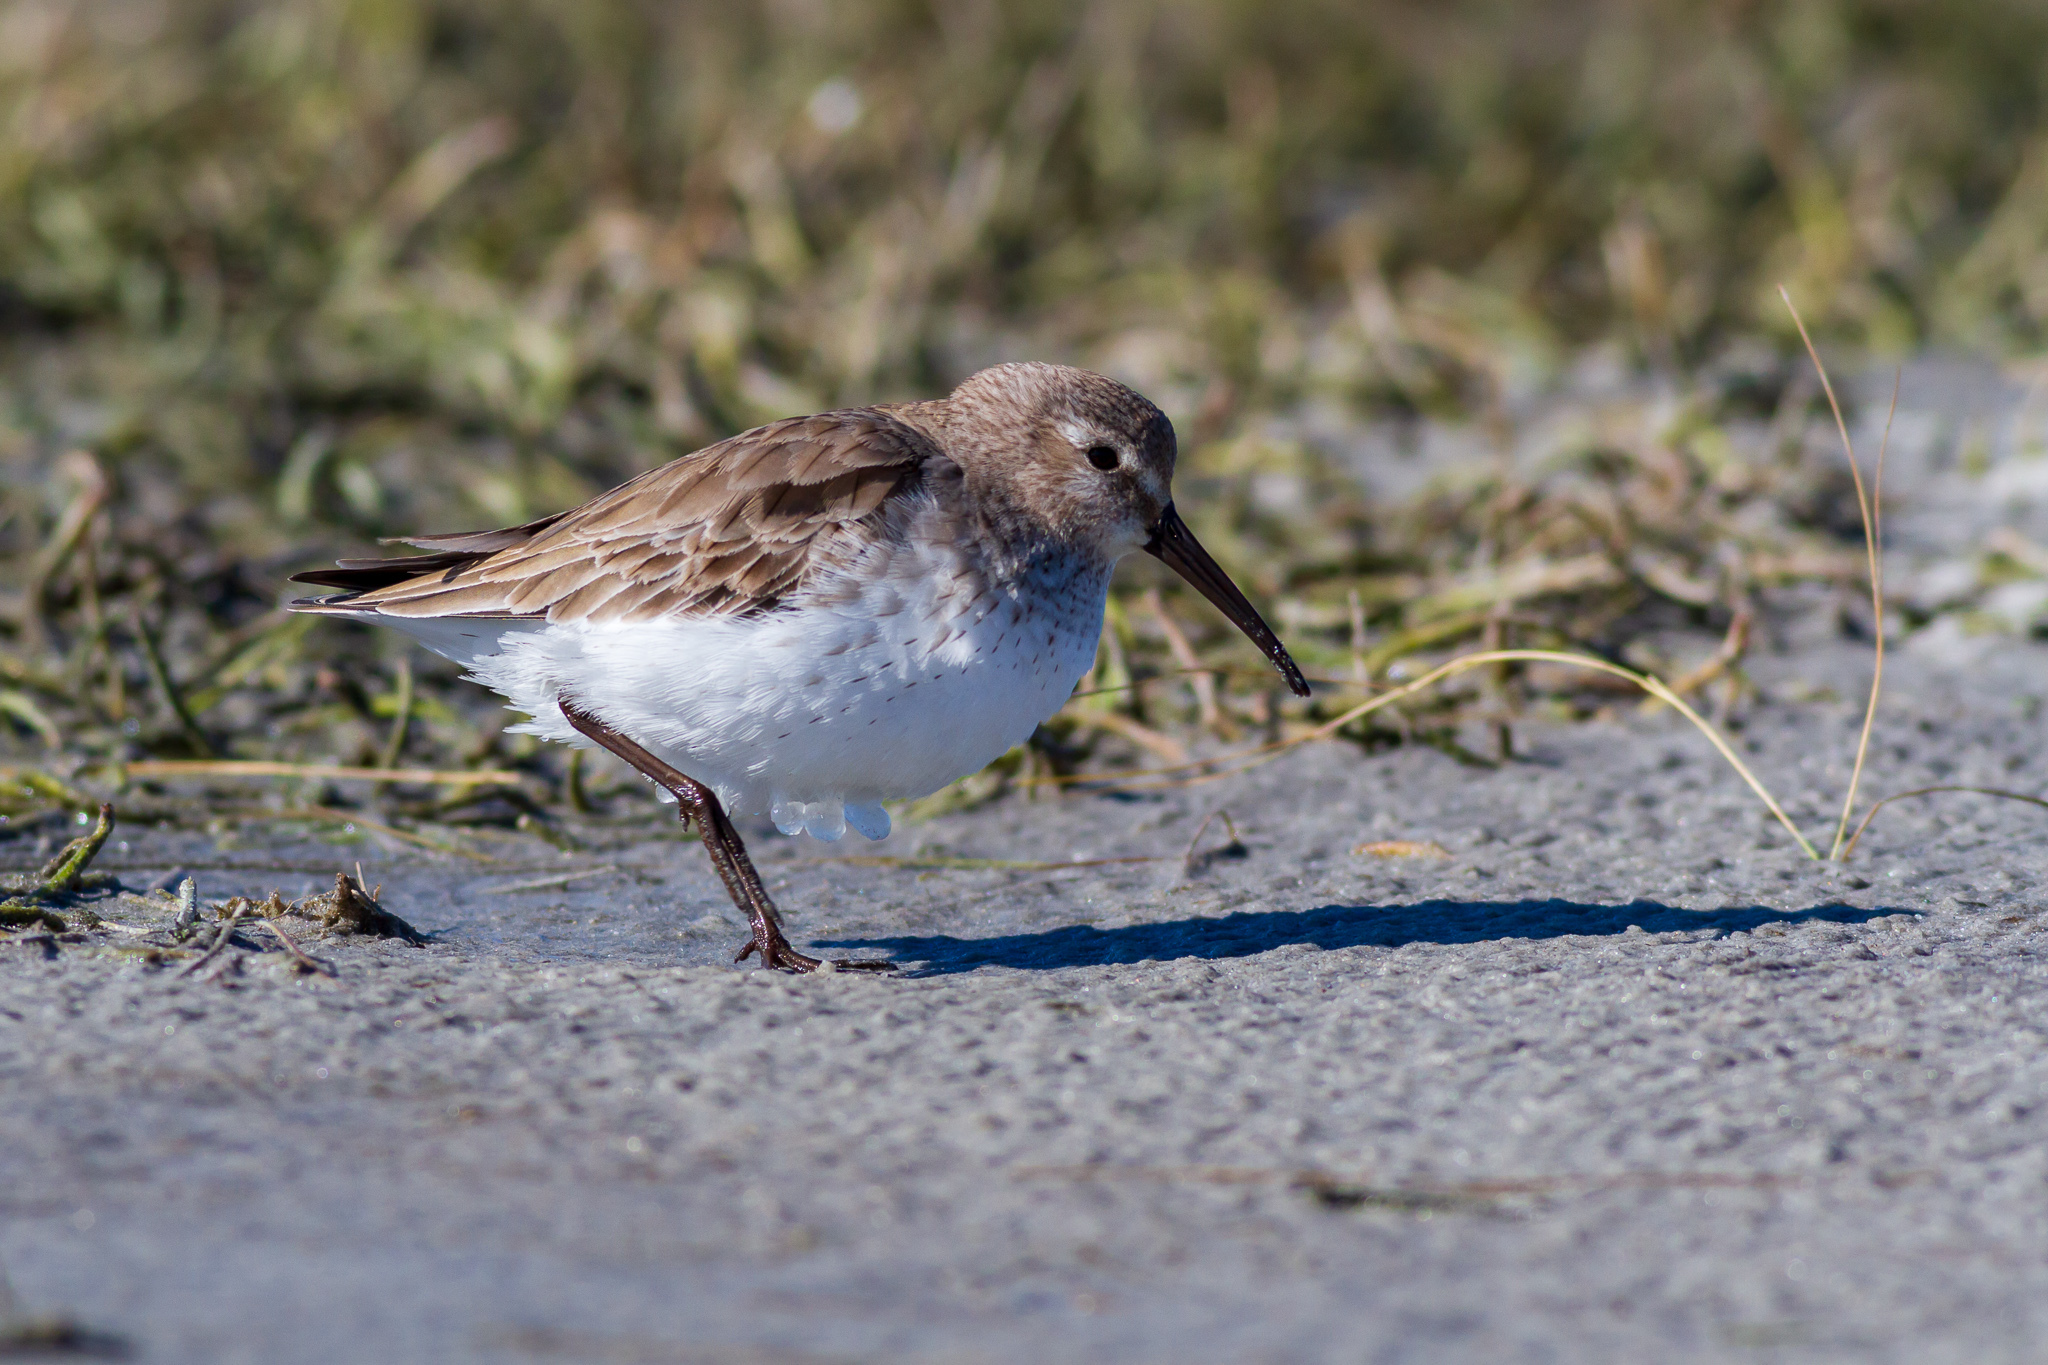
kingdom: Animalia
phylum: Chordata
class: Aves
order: Charadriiformes
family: Scolopacidae
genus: Calidris
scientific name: Calidris alpina
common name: Dunlin
